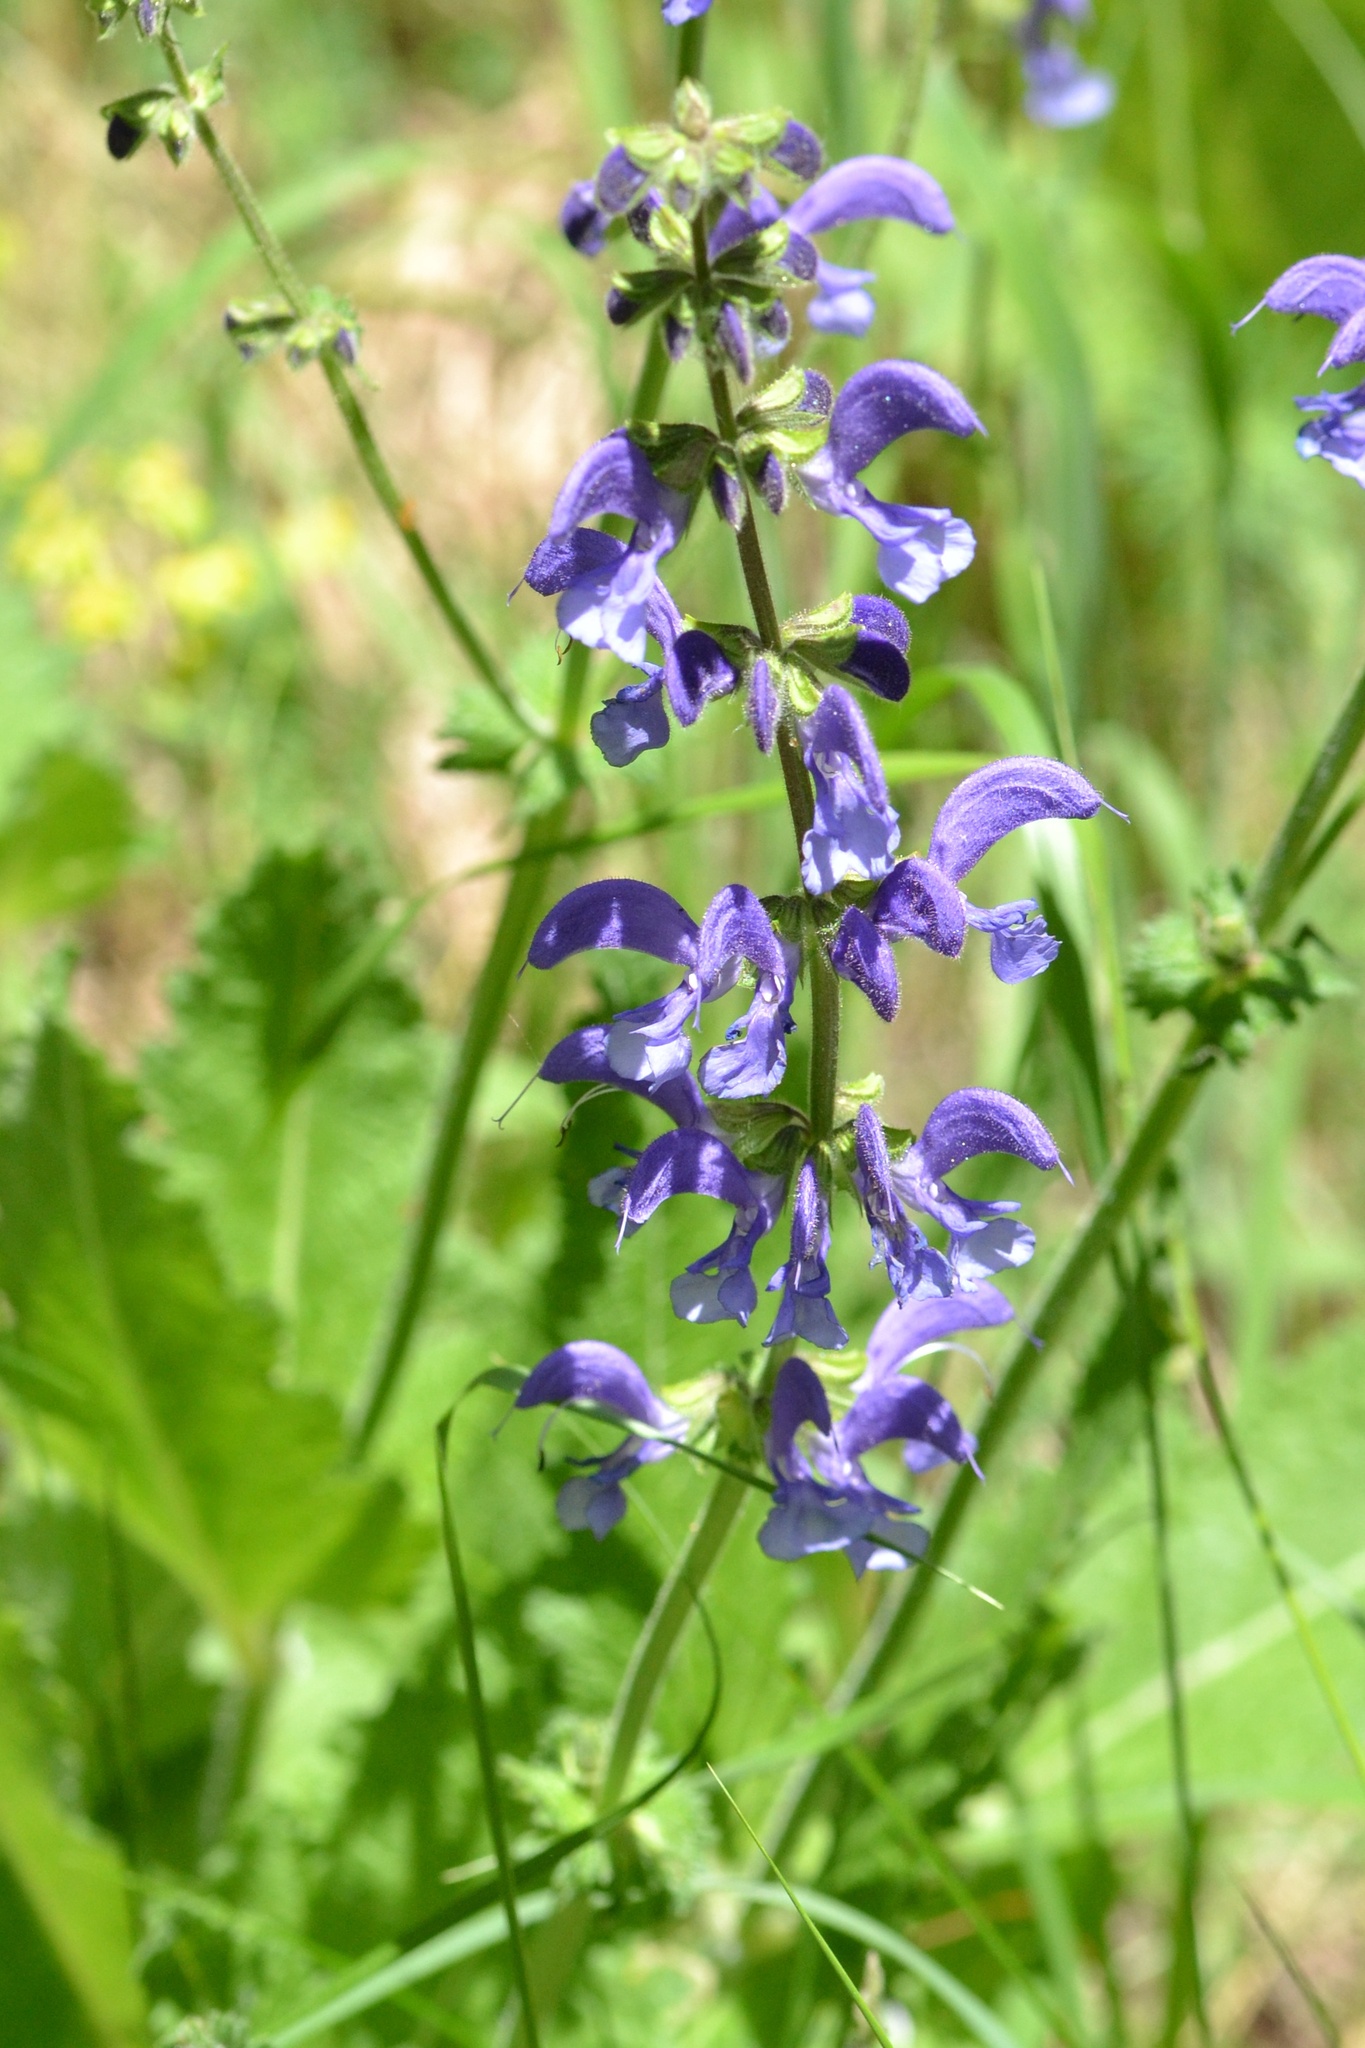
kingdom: Plantae
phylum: Tracheophyta
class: Magnoliopsida
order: Lamiales
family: Lamiaceae
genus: Salvia
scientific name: Salvia pratensis
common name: Meadow sage
